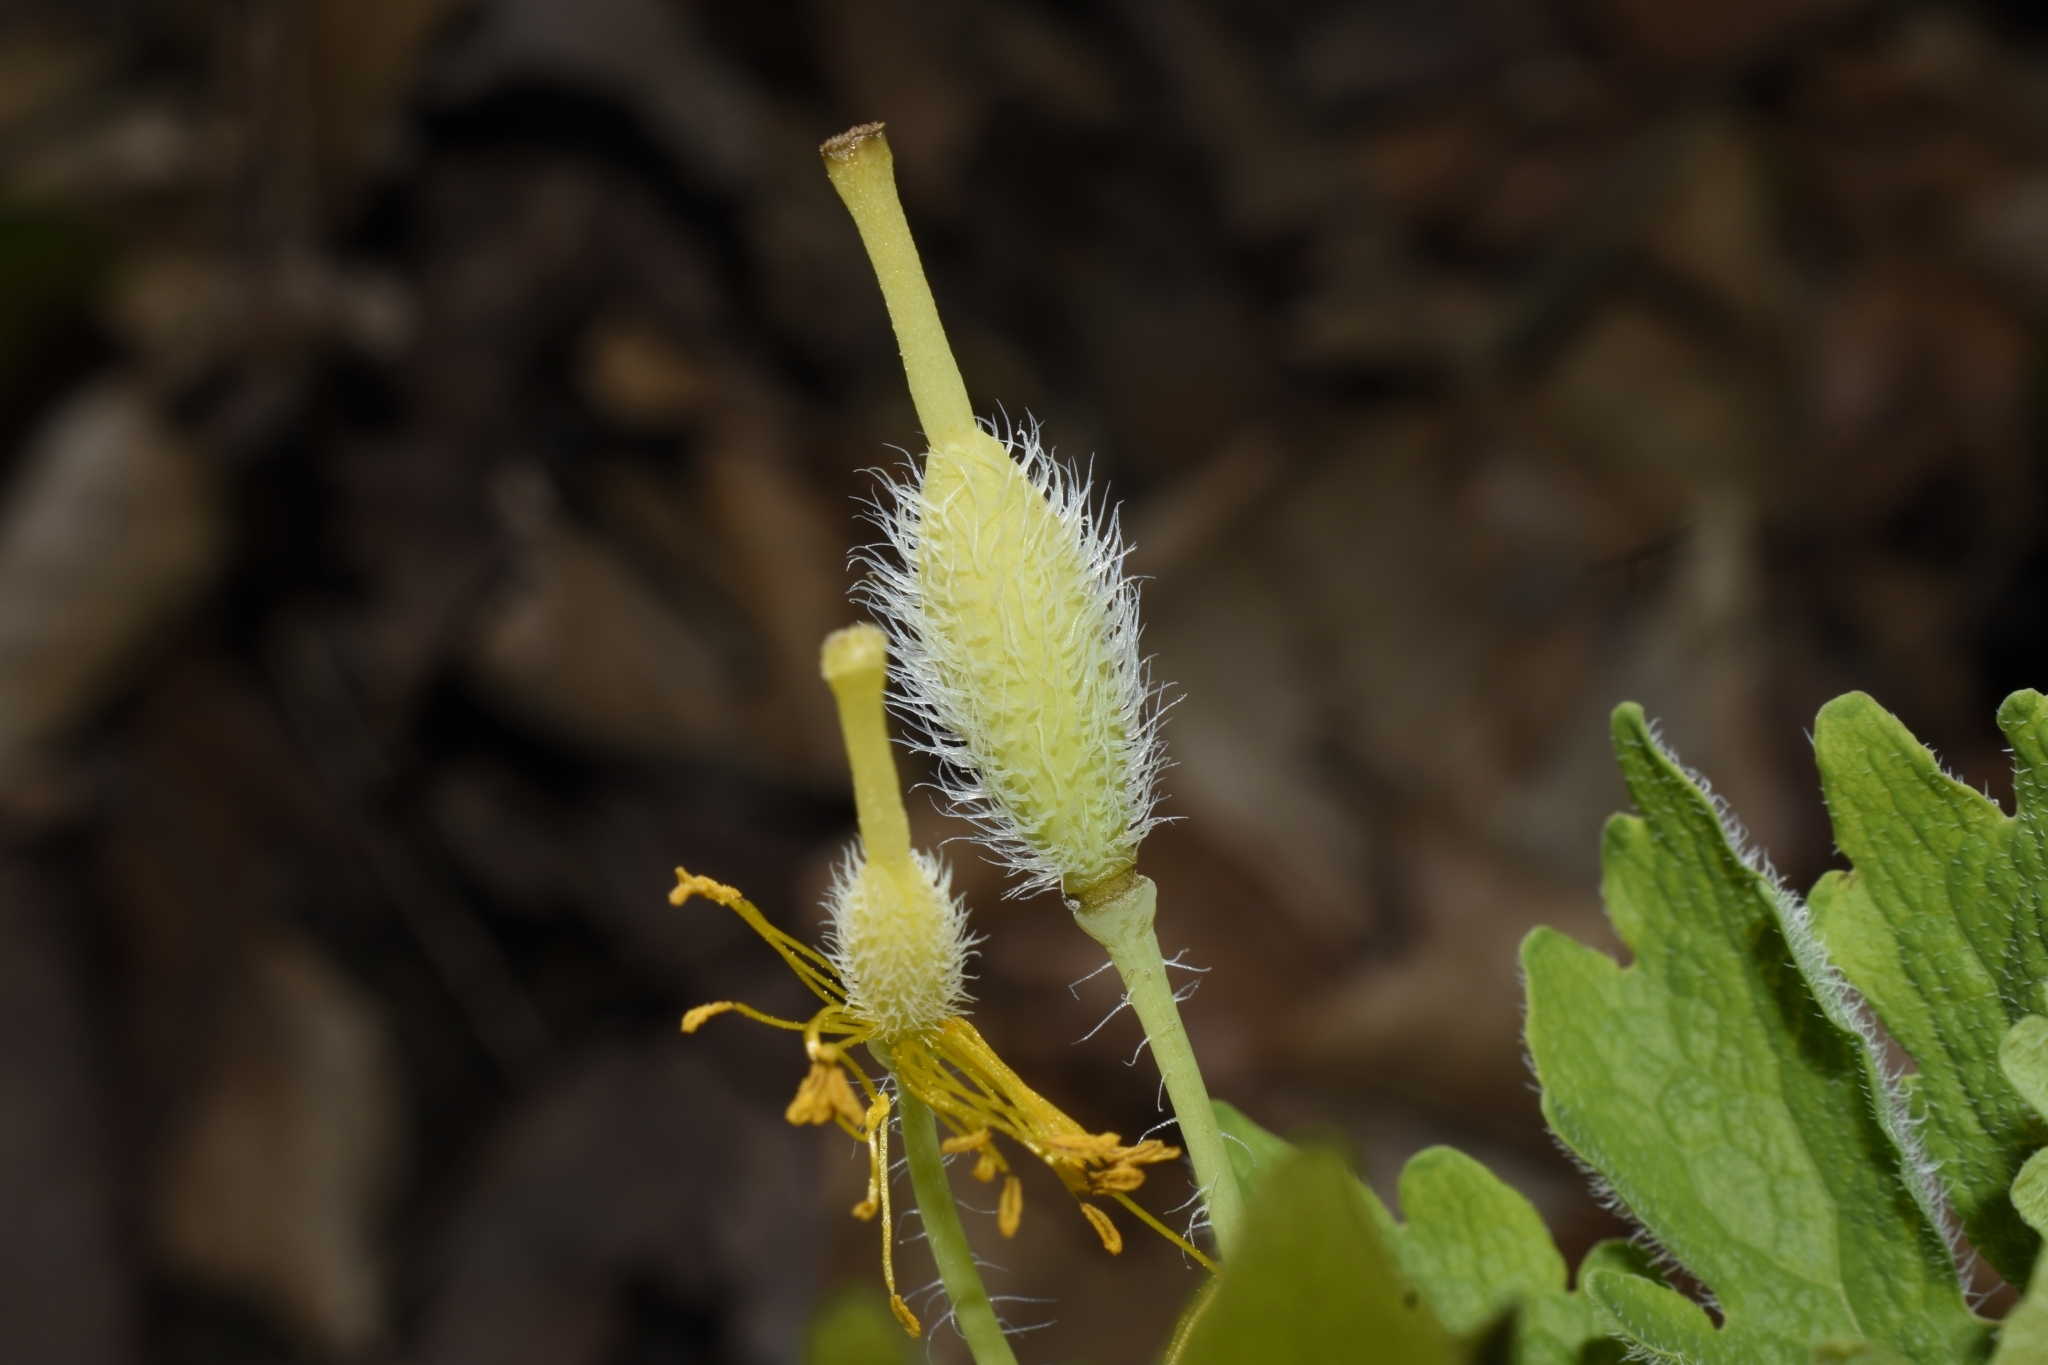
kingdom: Plantae
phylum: Tracheophyta
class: Magnoliopsida
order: Ranunculales
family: Papaveraceae
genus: Stylophorum
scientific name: Stylophorum diphyllum
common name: Celandine poppy
